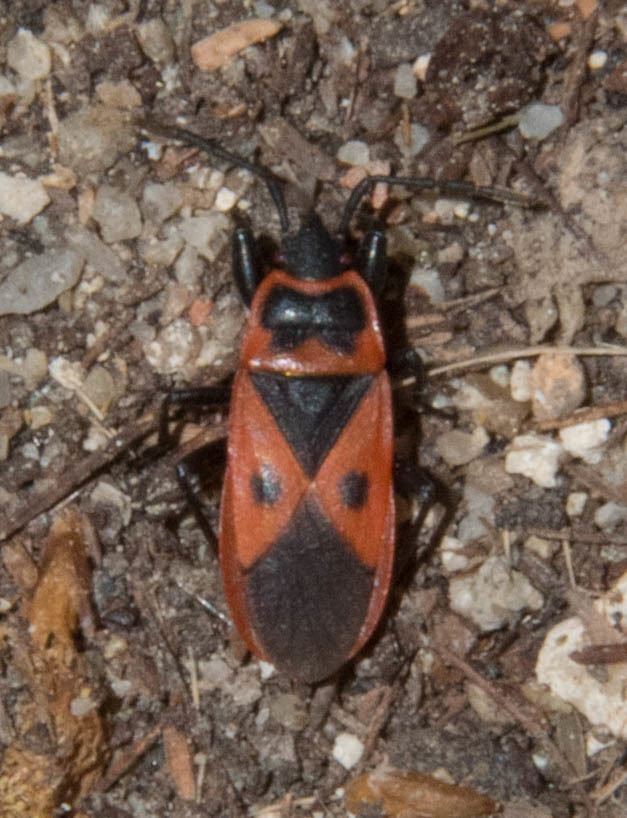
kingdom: Animalia
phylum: Arthropoda
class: Insecta
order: Hemiptera
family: Pyrrhocoridae
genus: Scantius
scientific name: Scantius aegyptius
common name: Red bug
